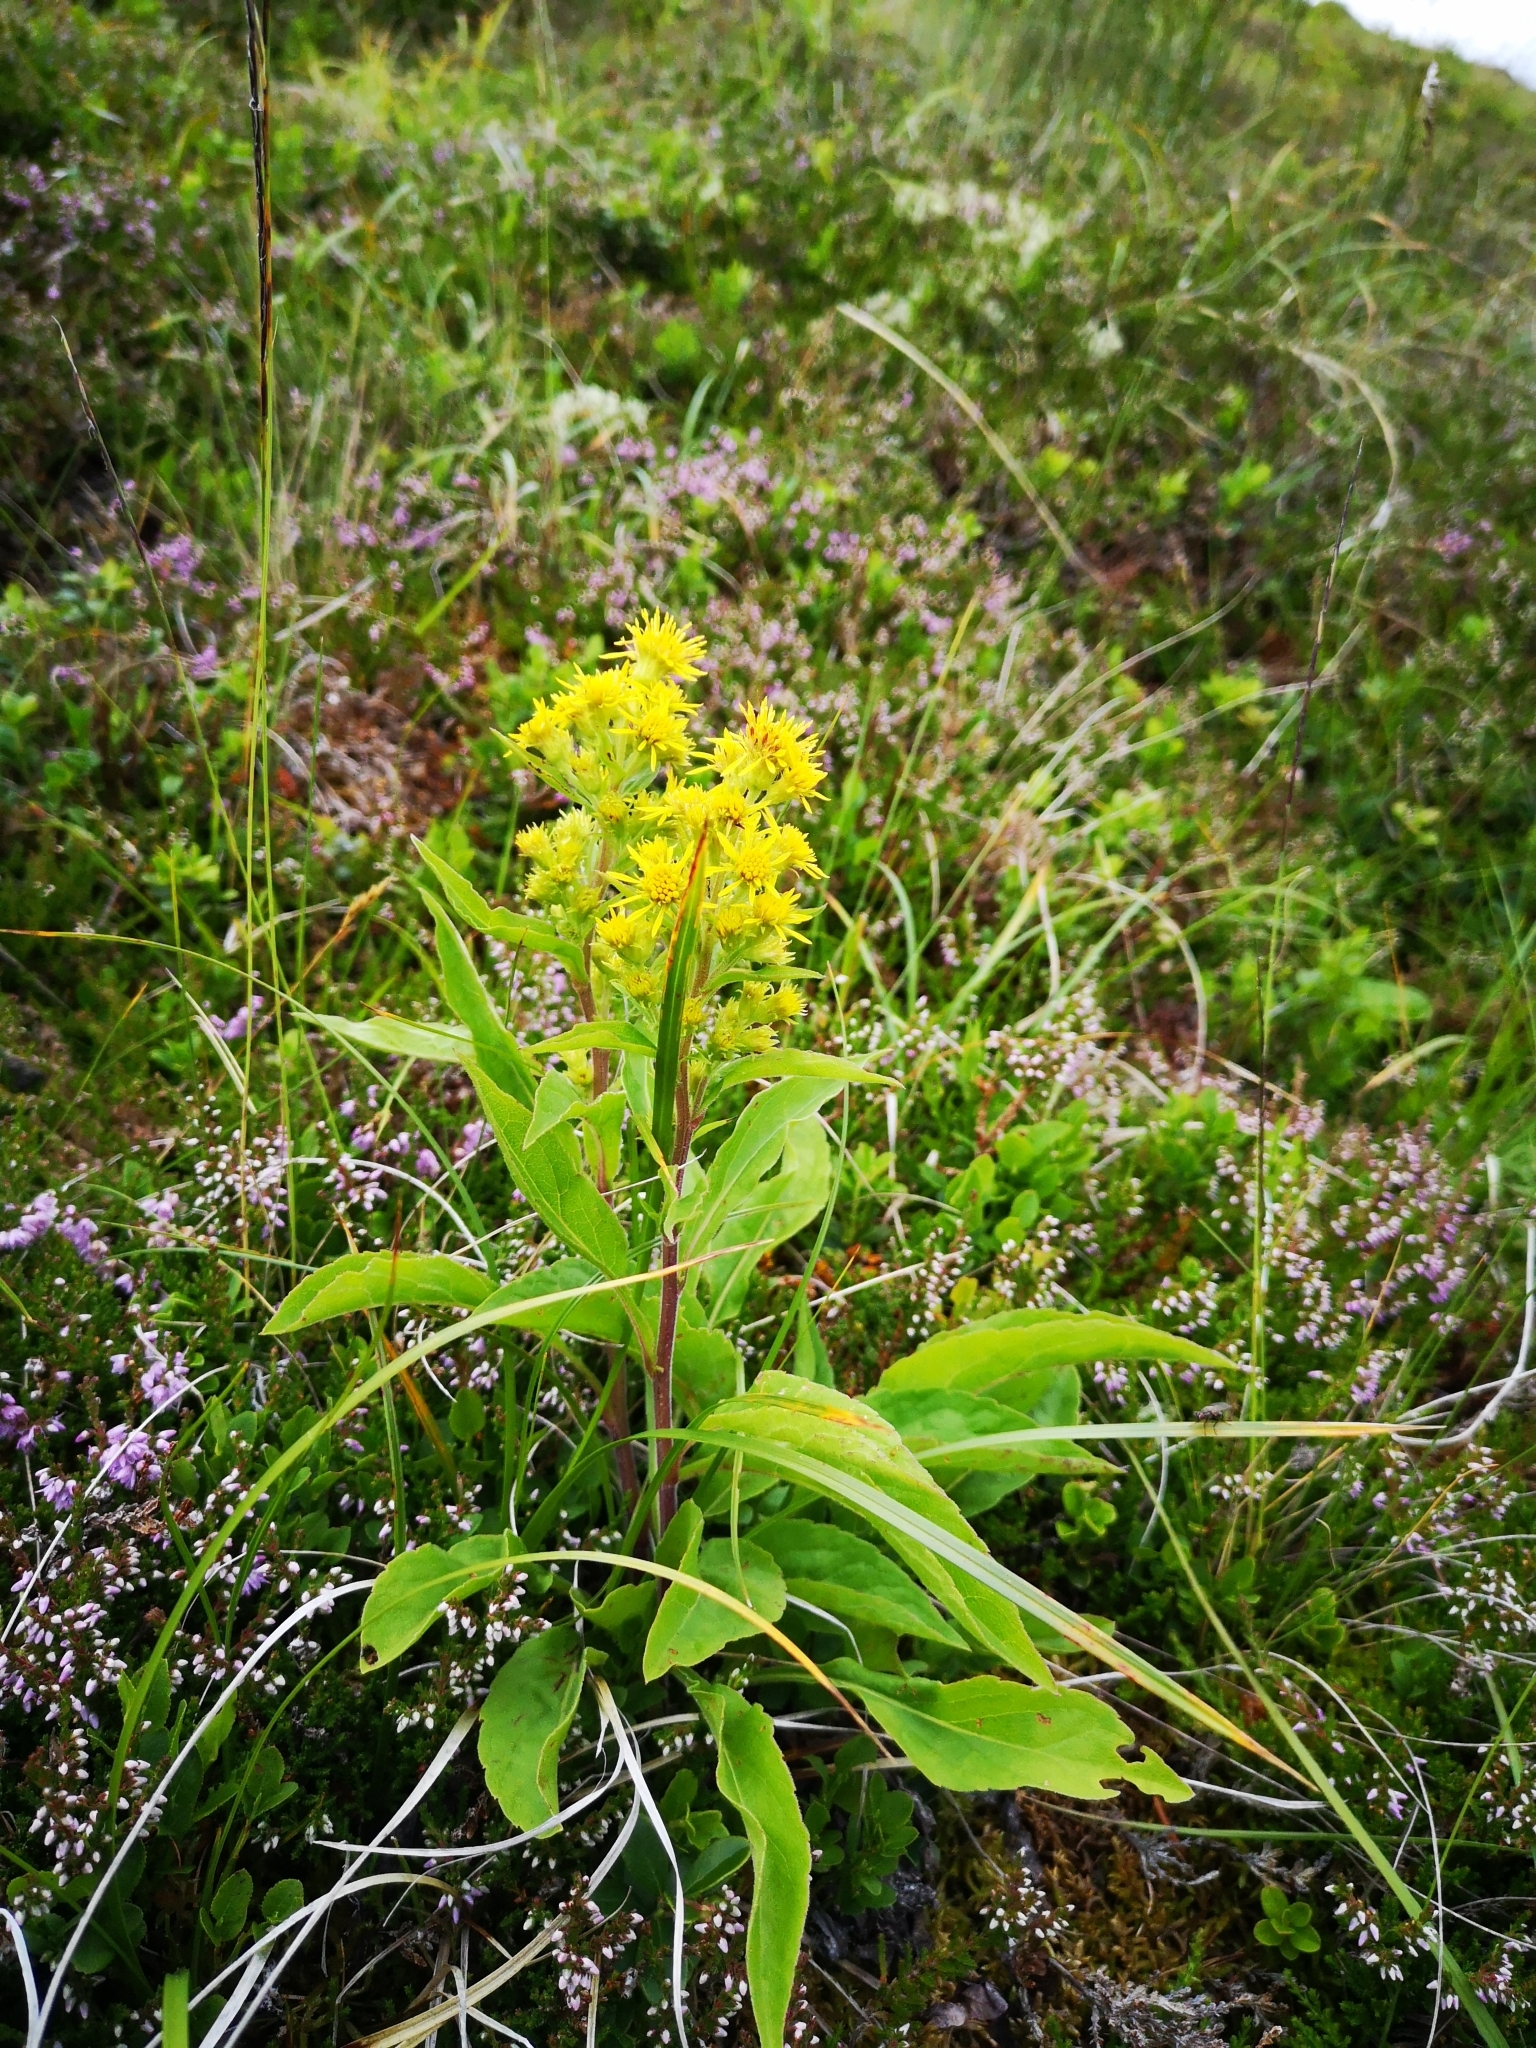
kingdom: Plantae
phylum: Tracheophyta
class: Magnoliopsida
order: Asterales
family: Asteraceae
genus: Solidago
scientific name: Solidago virgaurea
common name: Goldenrod
